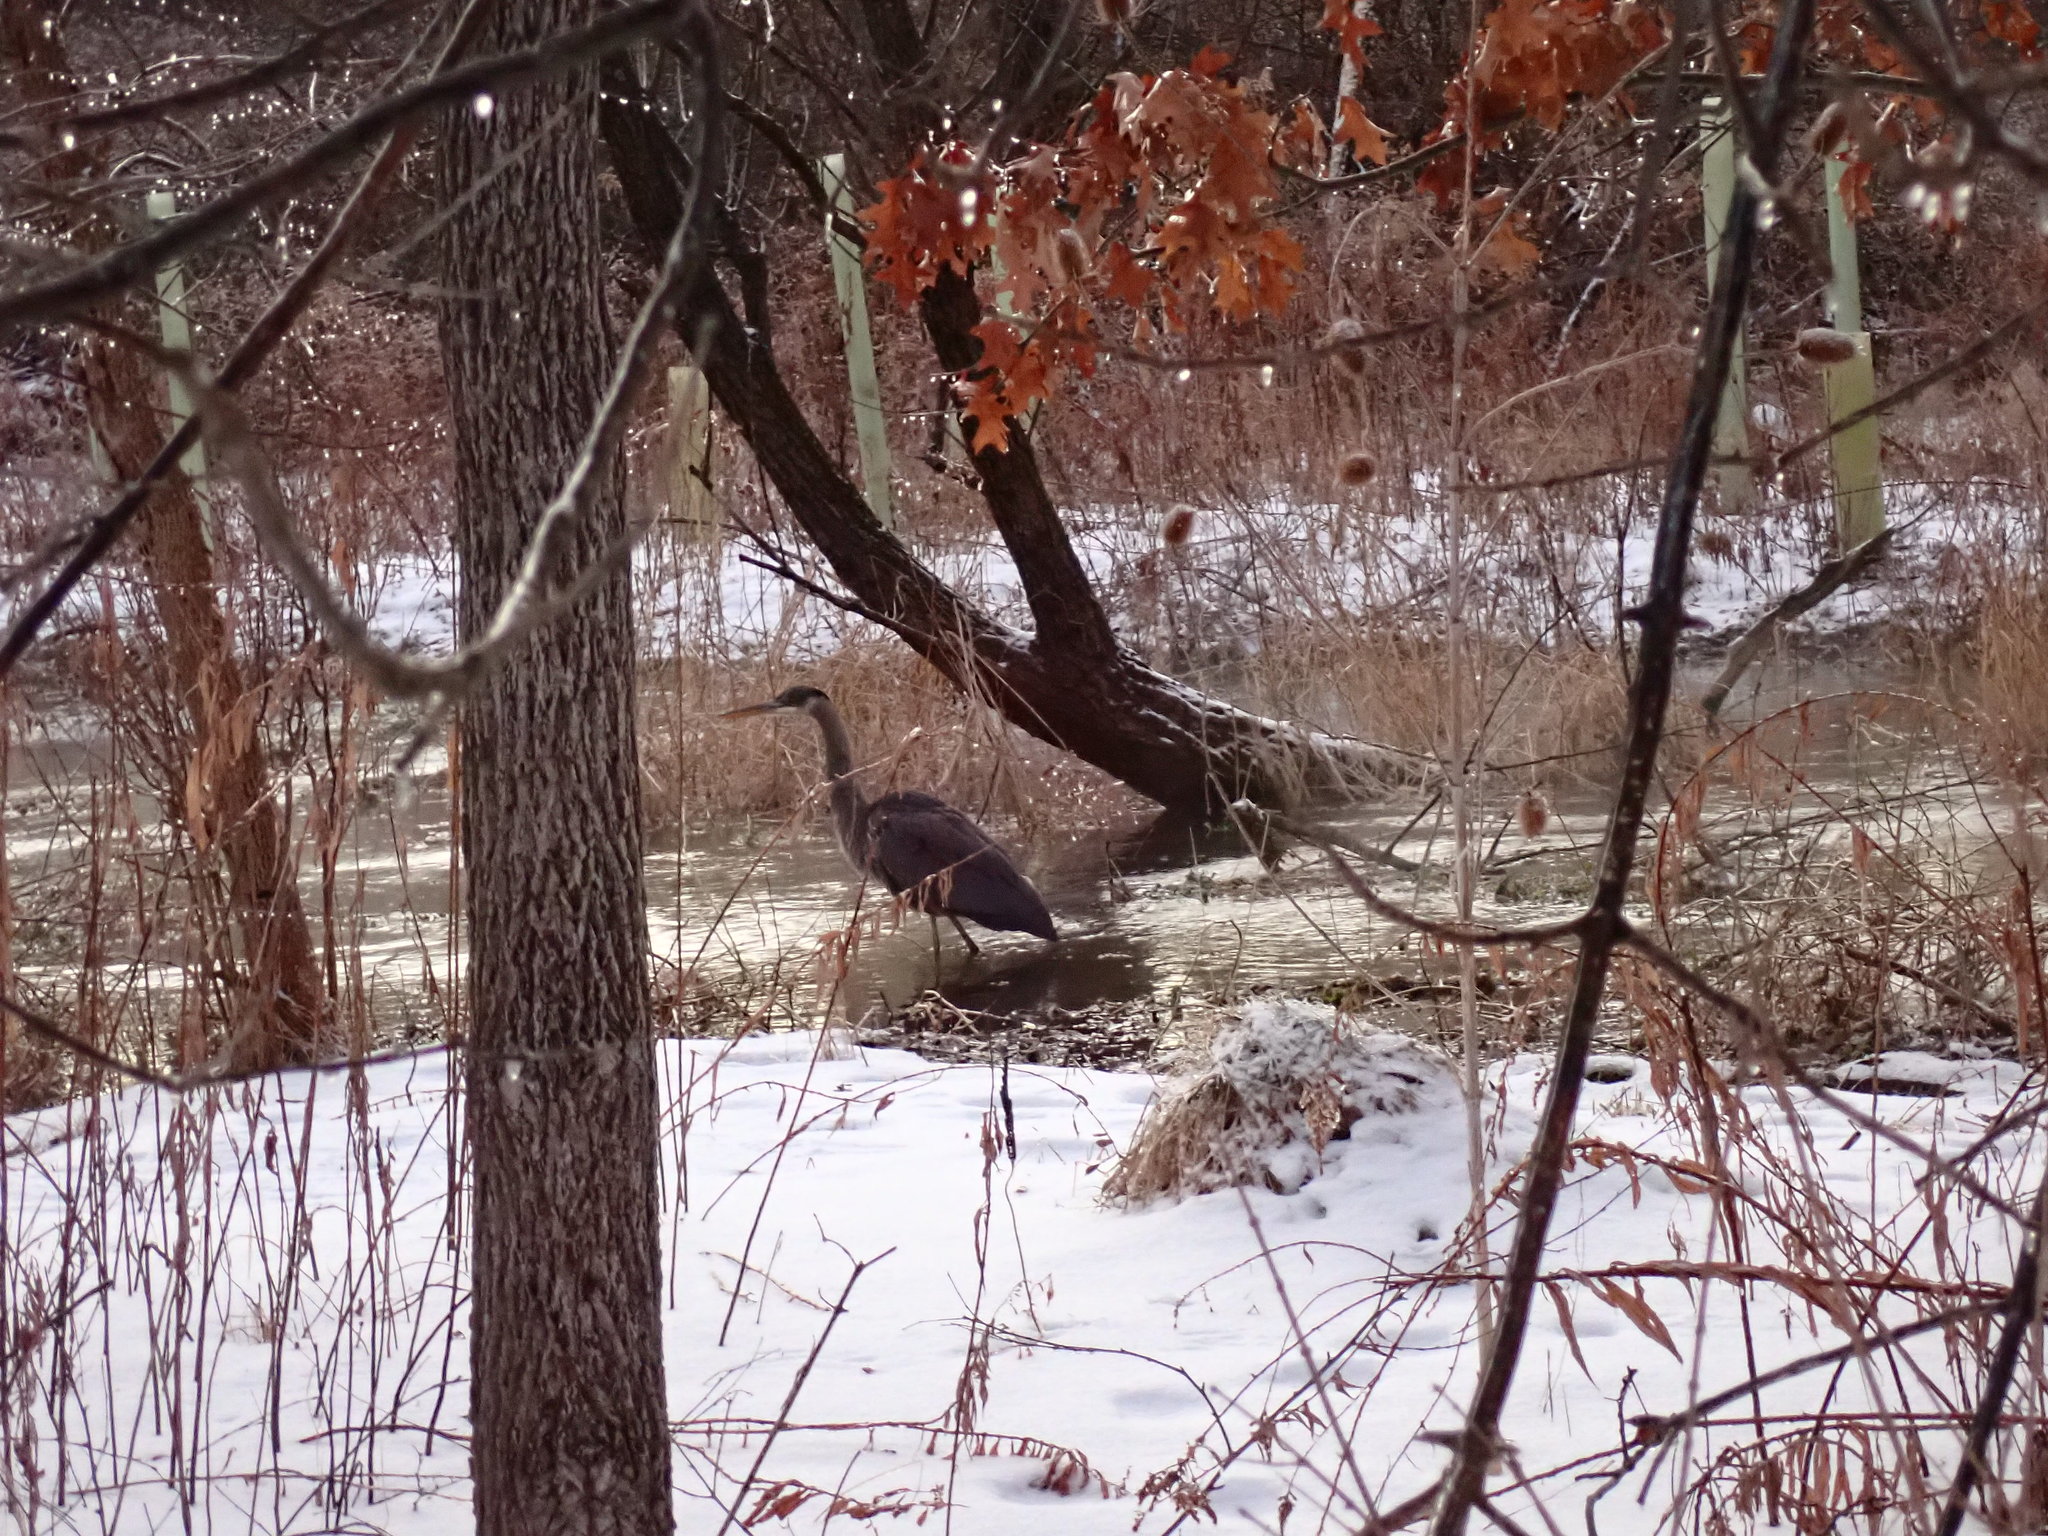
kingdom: Animalia
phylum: Chordata
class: Aves
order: Pelecaniformes
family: Ardeidae
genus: Ardea
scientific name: Ardea herodias
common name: Great blue heron
